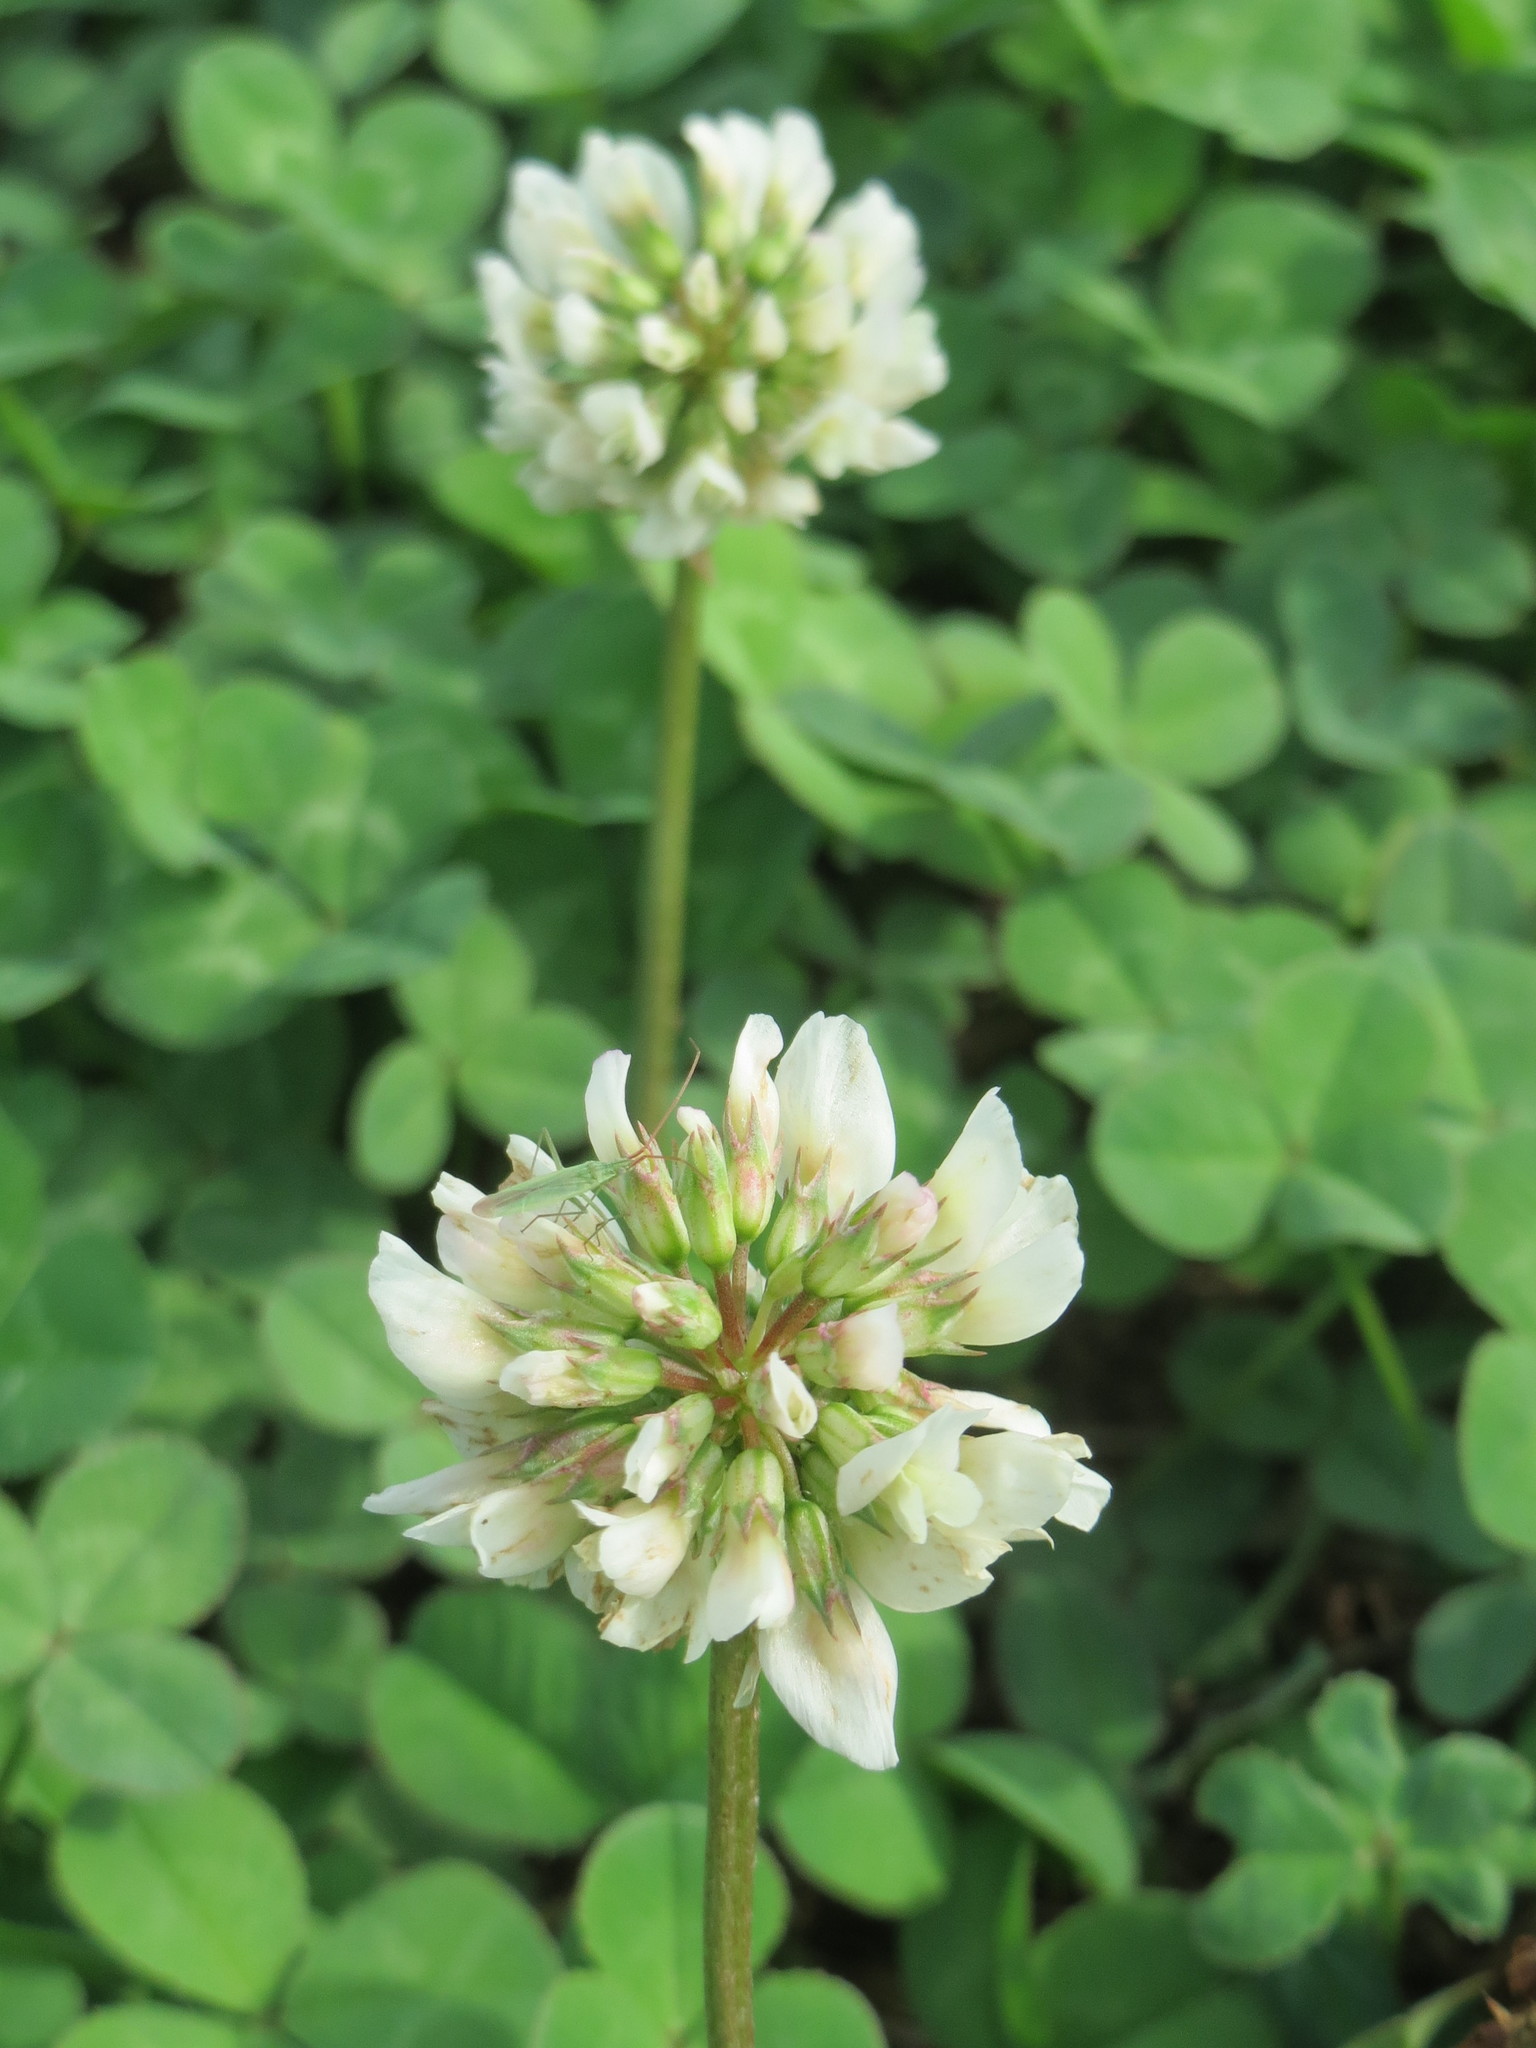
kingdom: Plantae
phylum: Tracheophyta
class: Magnoliopsida
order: Fabales
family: Fabaceae
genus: Trifolium
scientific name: Trifolium repens
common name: White clover
